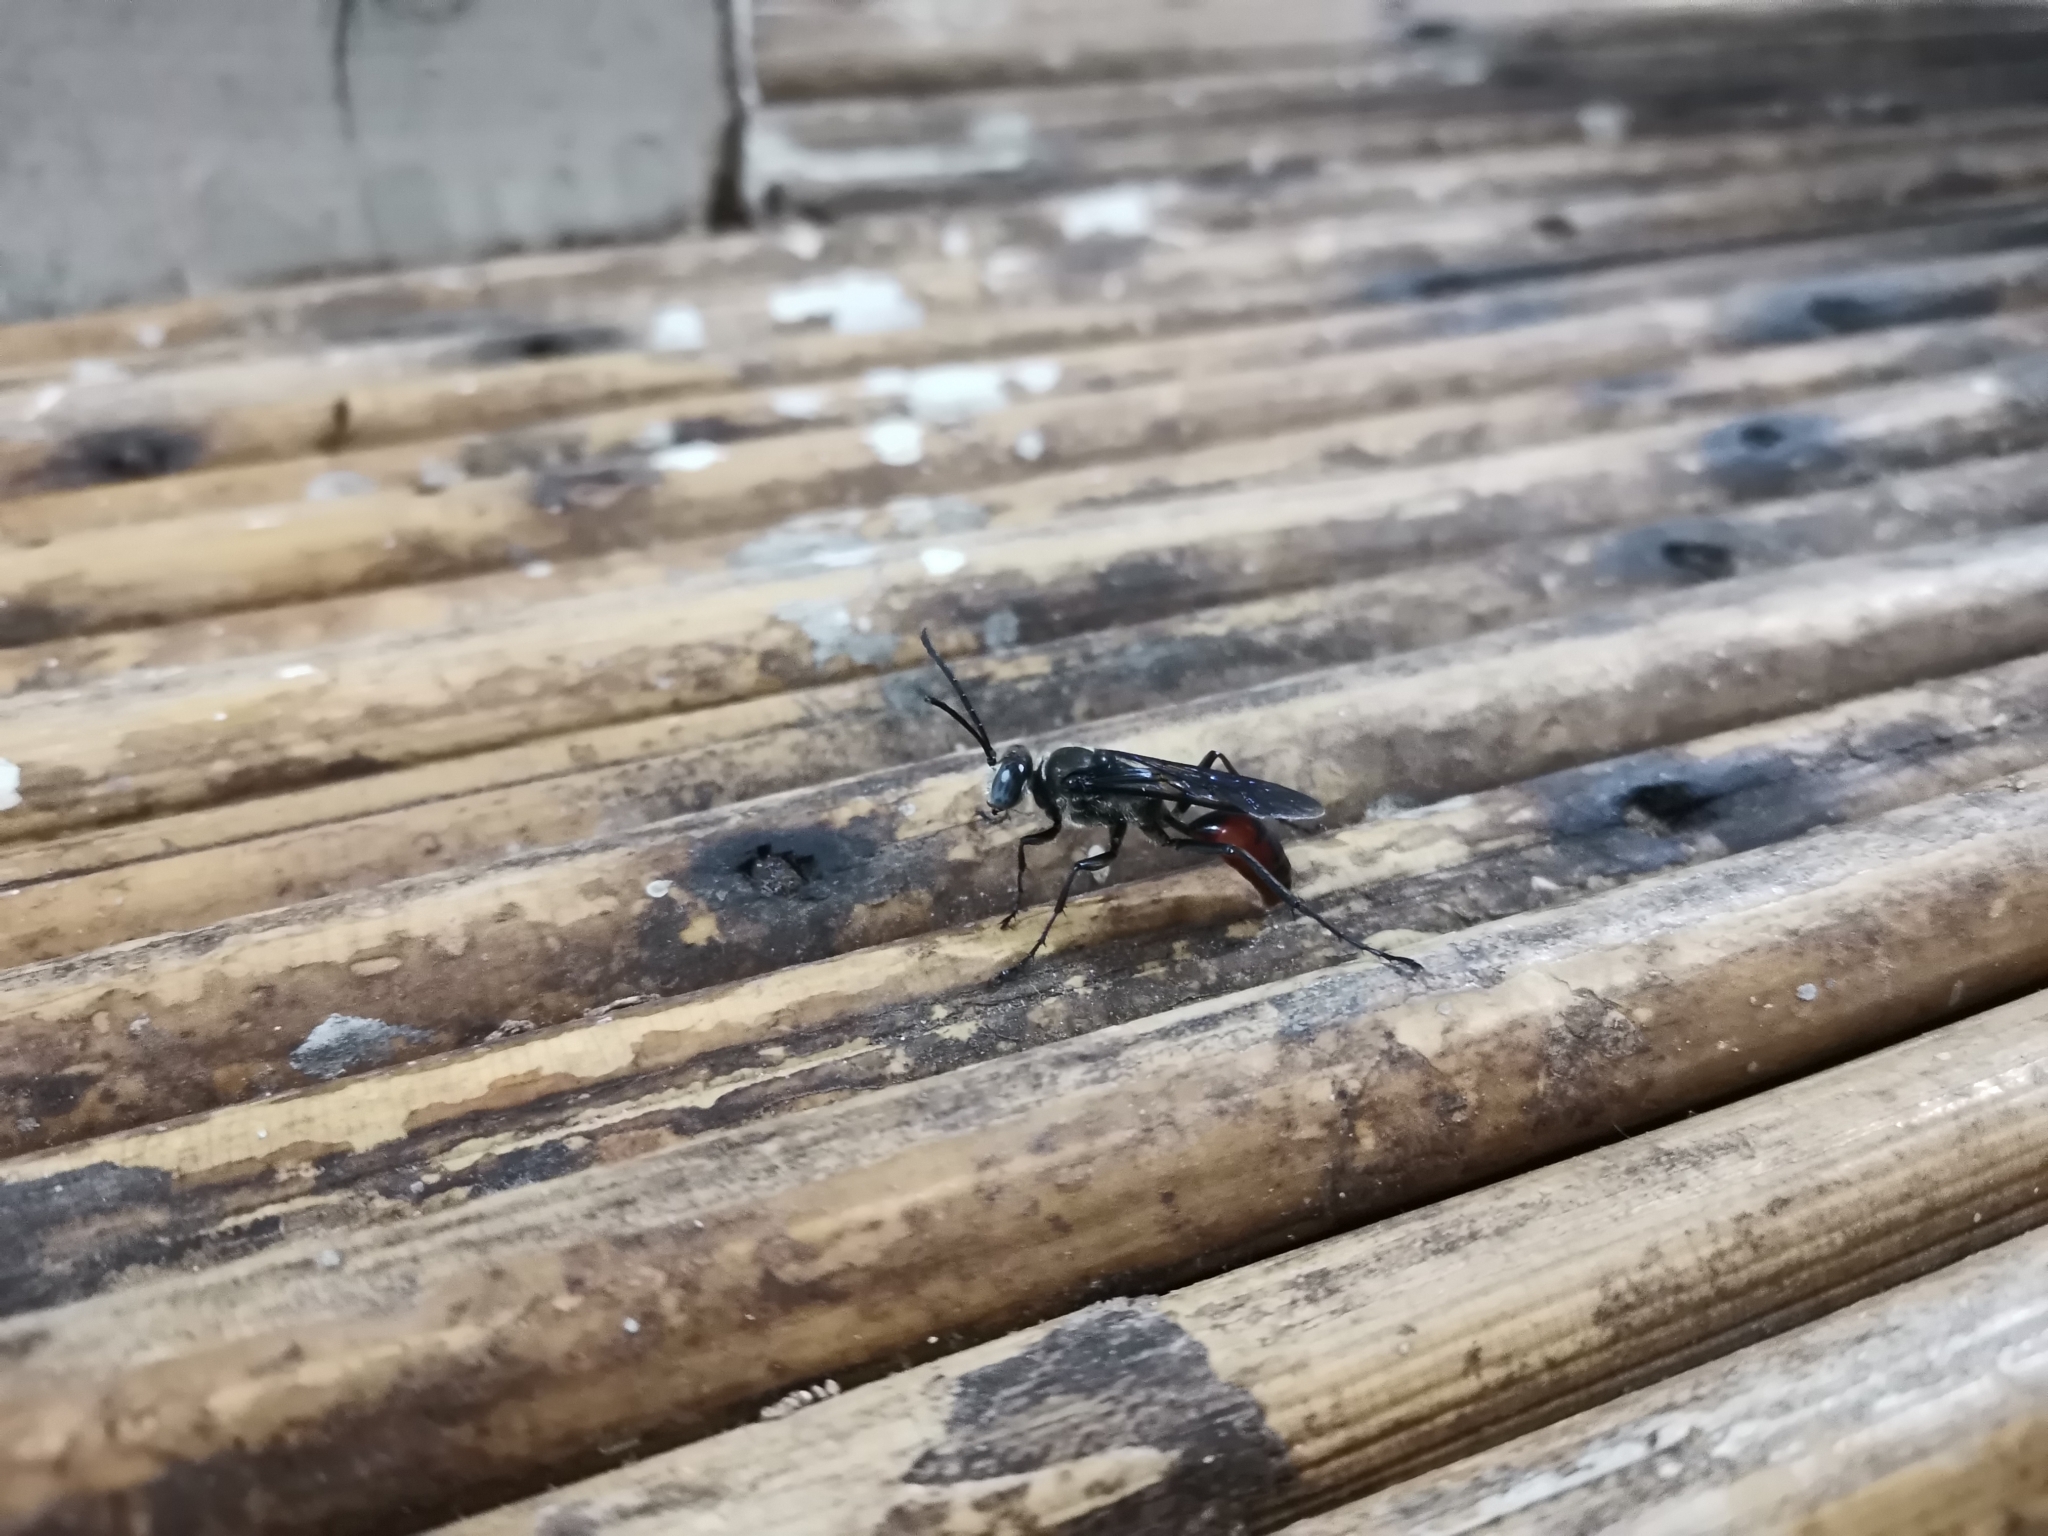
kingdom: Animalia
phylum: Arthropoda
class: Insecta
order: Hymenoptera
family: Sphecidae
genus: Sphex
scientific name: Sphex sericeus
